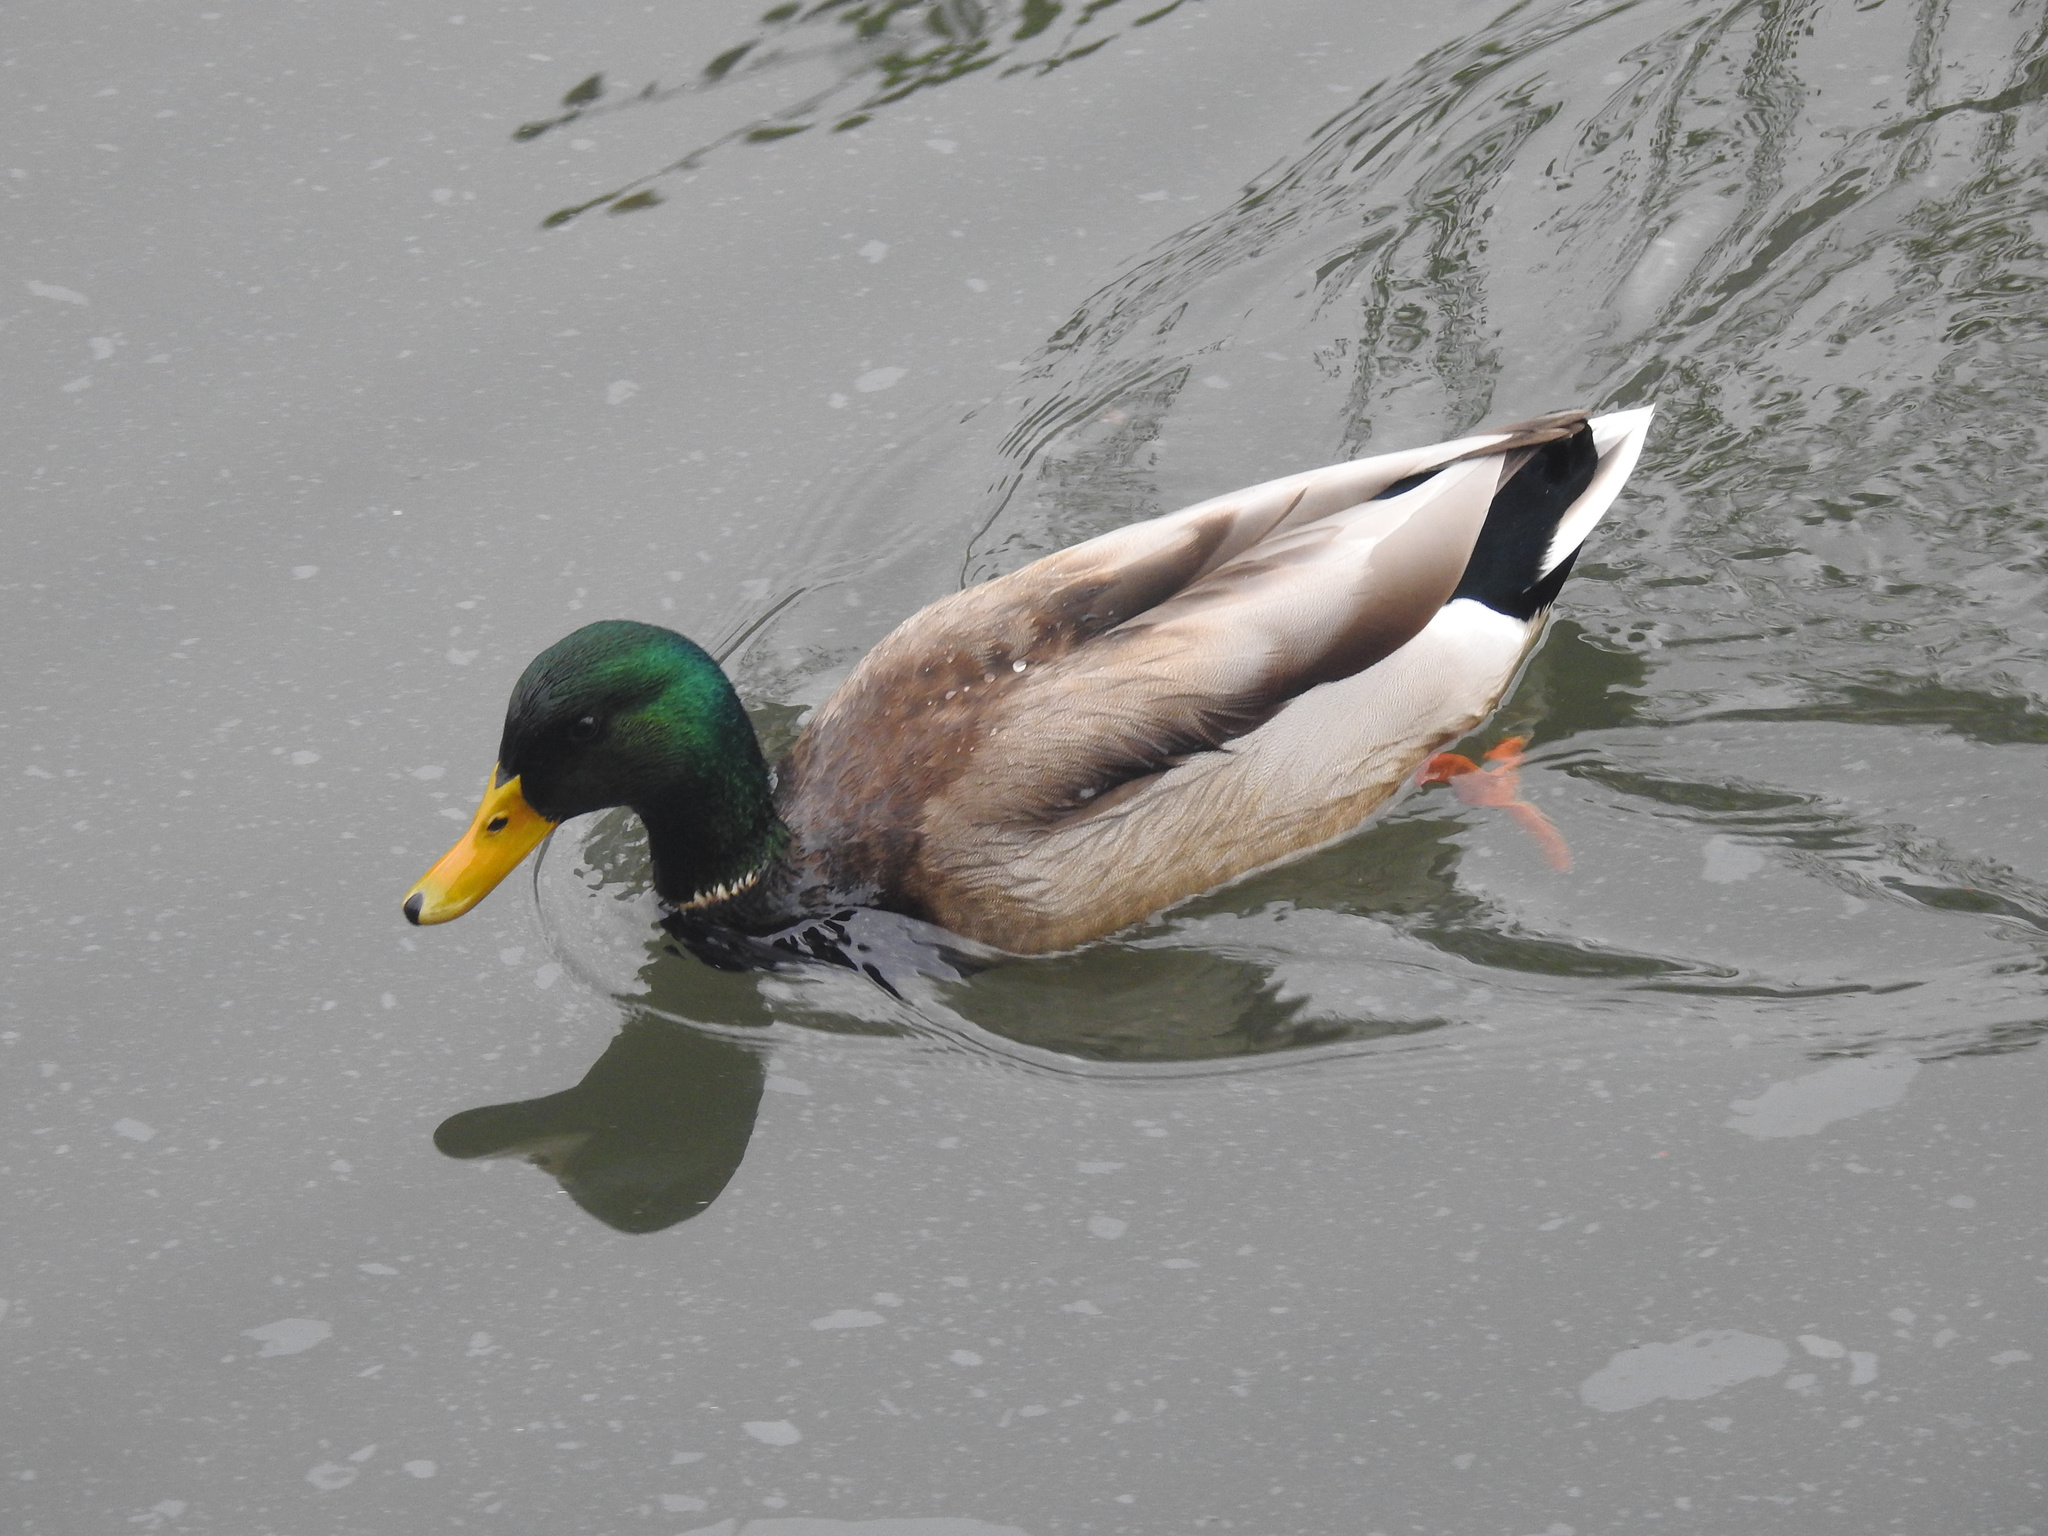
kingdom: Animalia
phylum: Chordata
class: Aves
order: Anseriformes
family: Anatidae
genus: Anas
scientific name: Anas platyrhynchos
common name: Mallard
